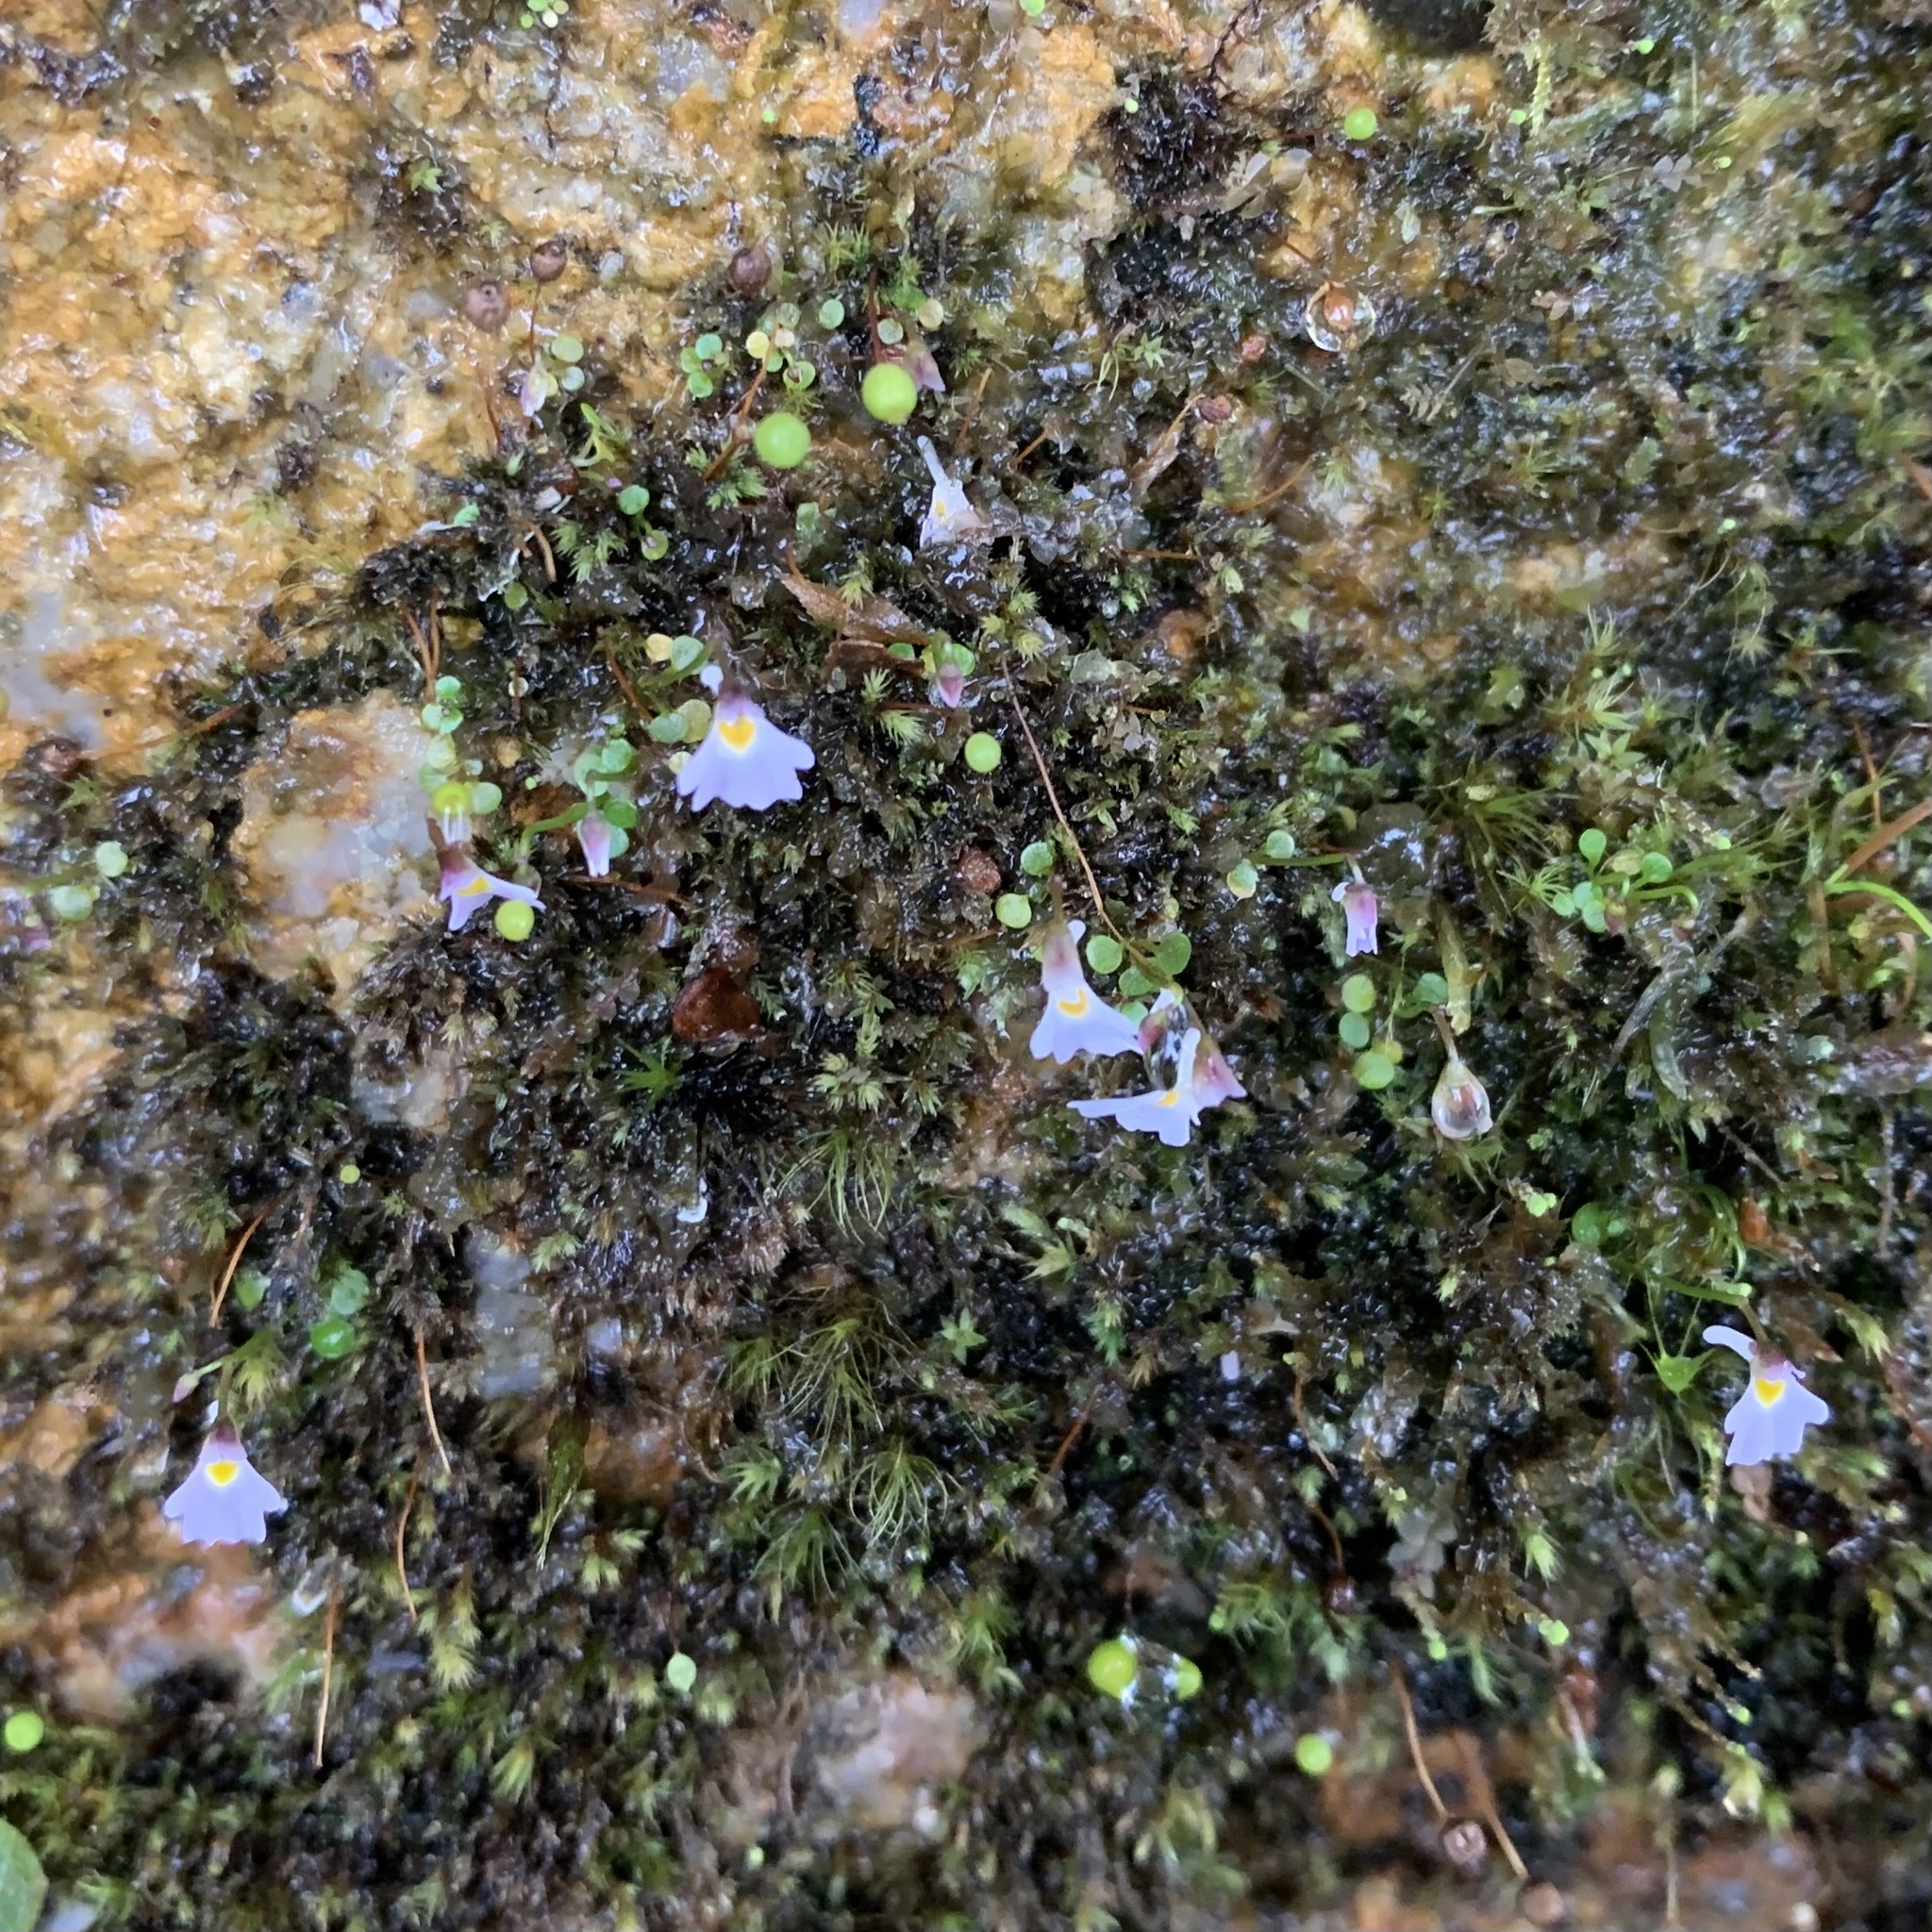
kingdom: Plantae
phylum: Tracheophyta
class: Magnoliopsida
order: Lamiales
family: Lentibulariaceae
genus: Utricularia
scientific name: Utricularia furcellata
